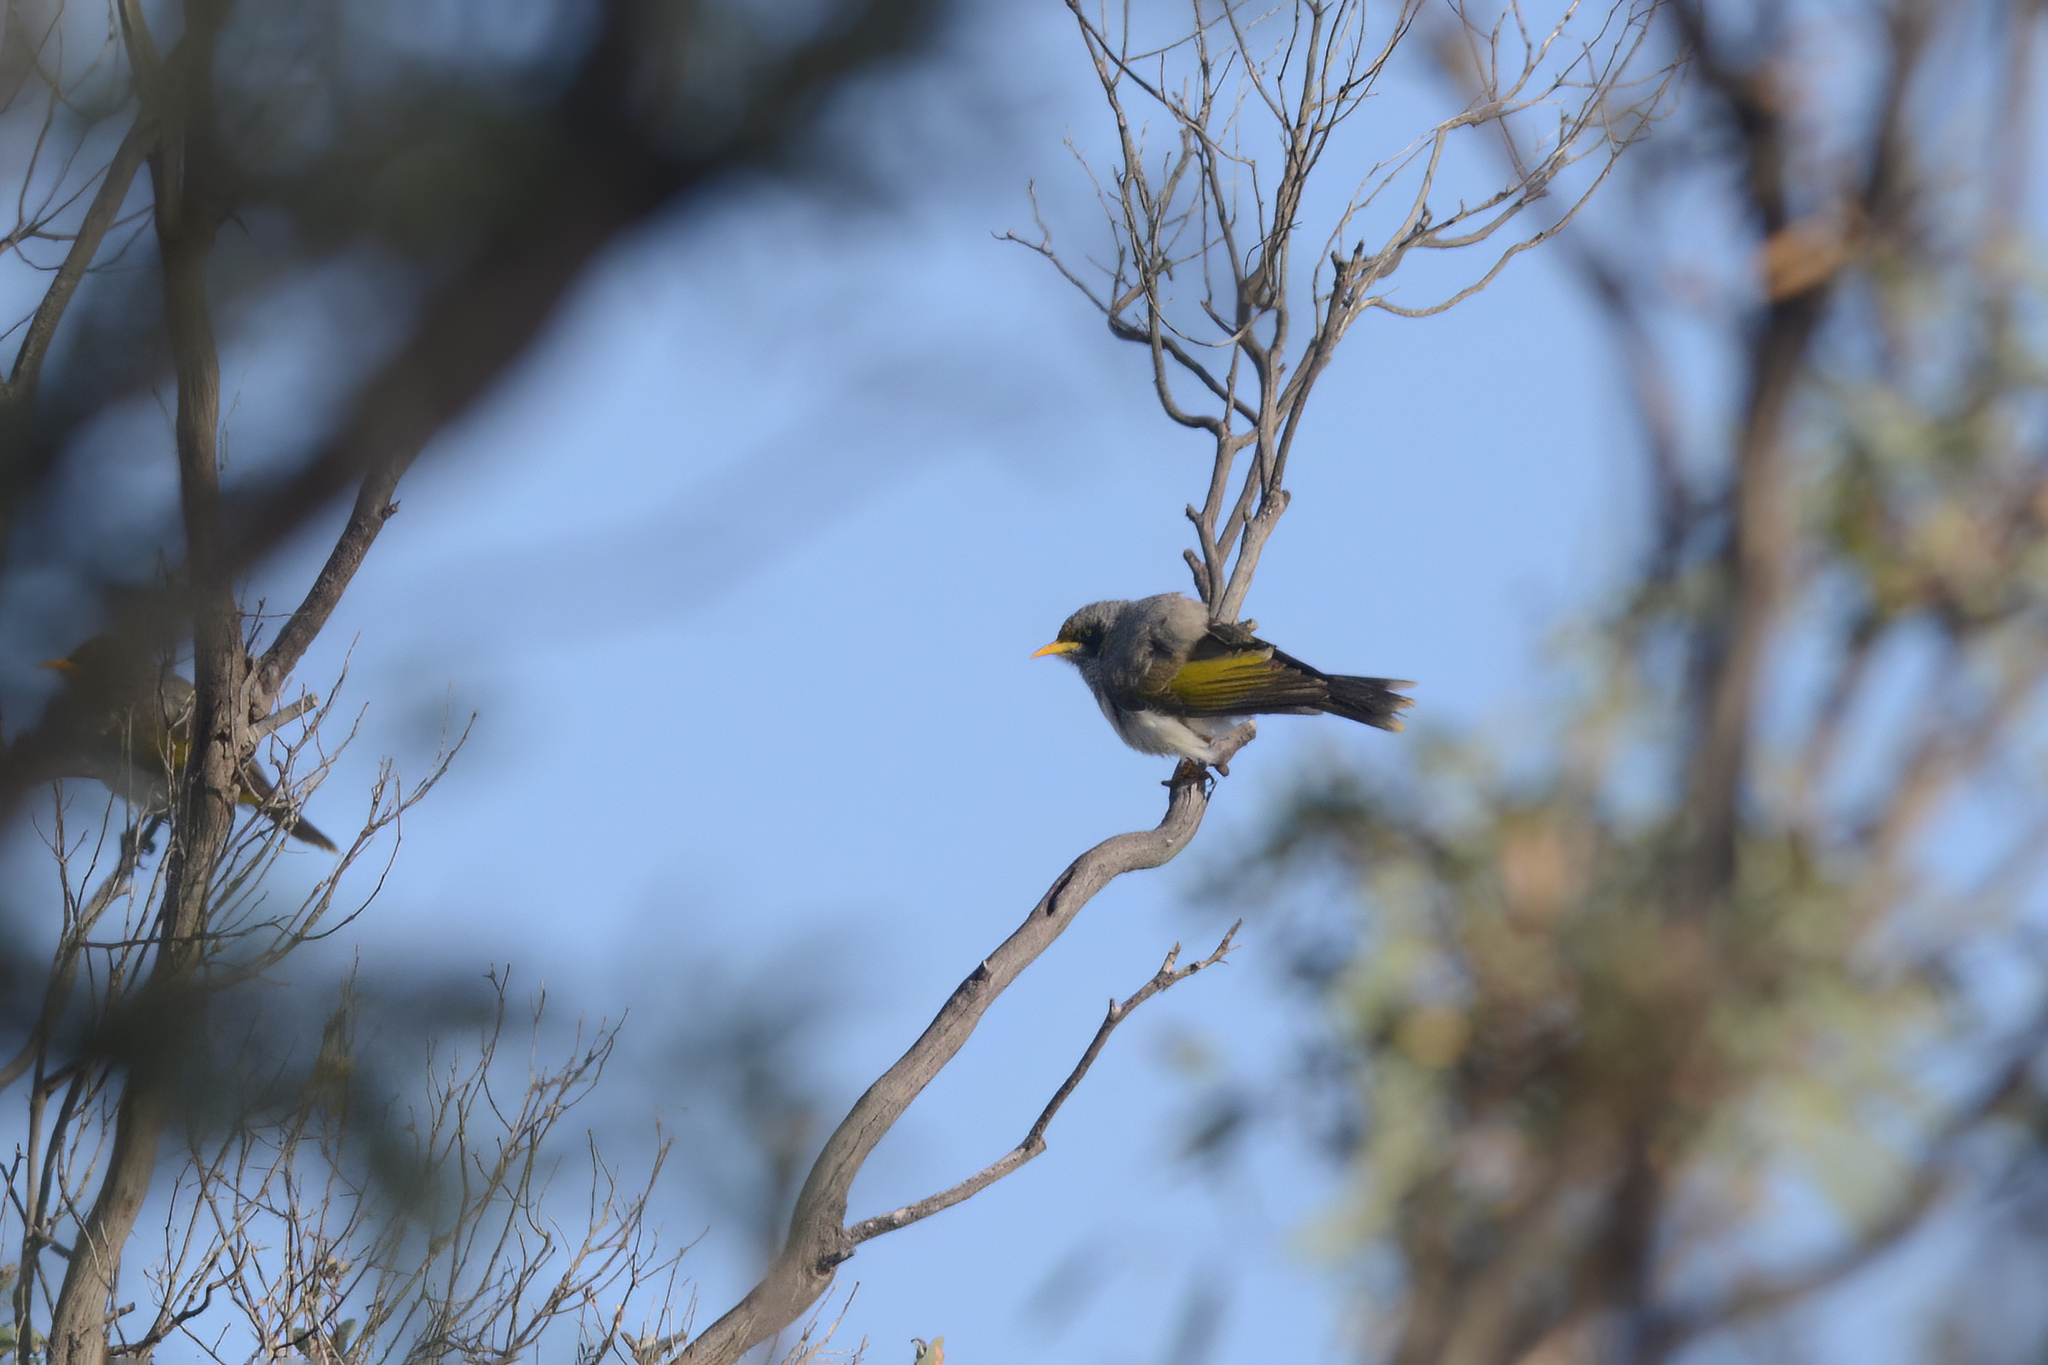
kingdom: Animalia
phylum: Chordata
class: Aves
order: Passeriformes
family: Meliphagidae
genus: Manorina
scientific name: Manorina melanotis
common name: Black-eared miner
